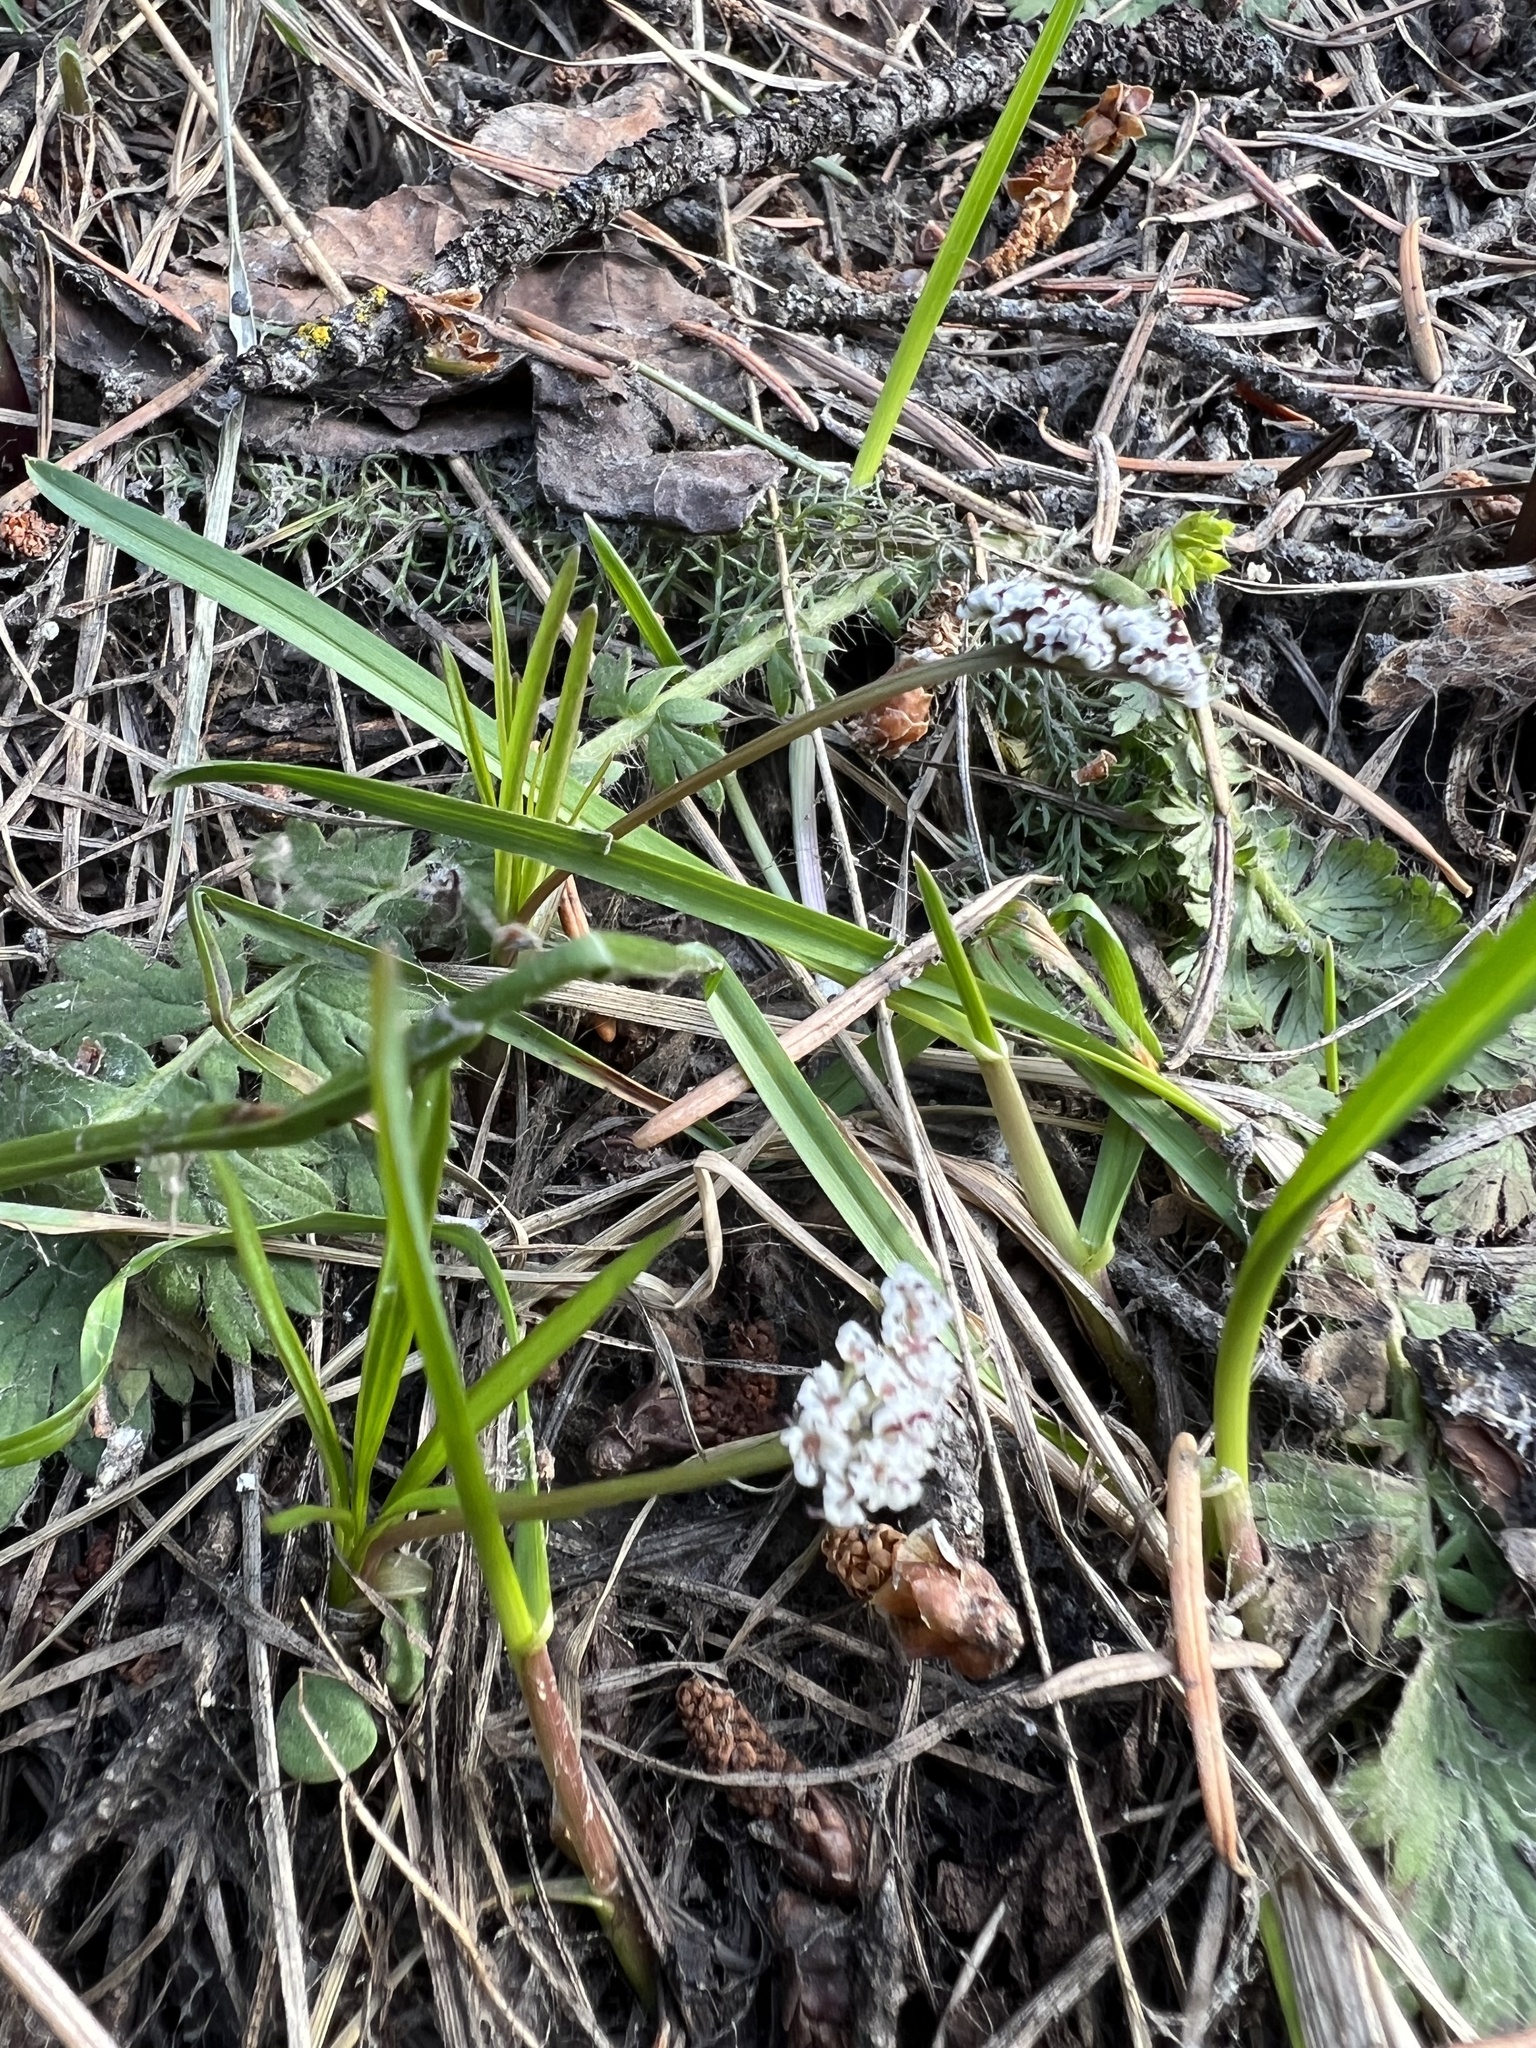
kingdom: Plantae
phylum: Tracheophyta
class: Magnoliopsida
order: Apiales
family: Apiaceae
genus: Lomatium
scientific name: Lomatium linearifolium
